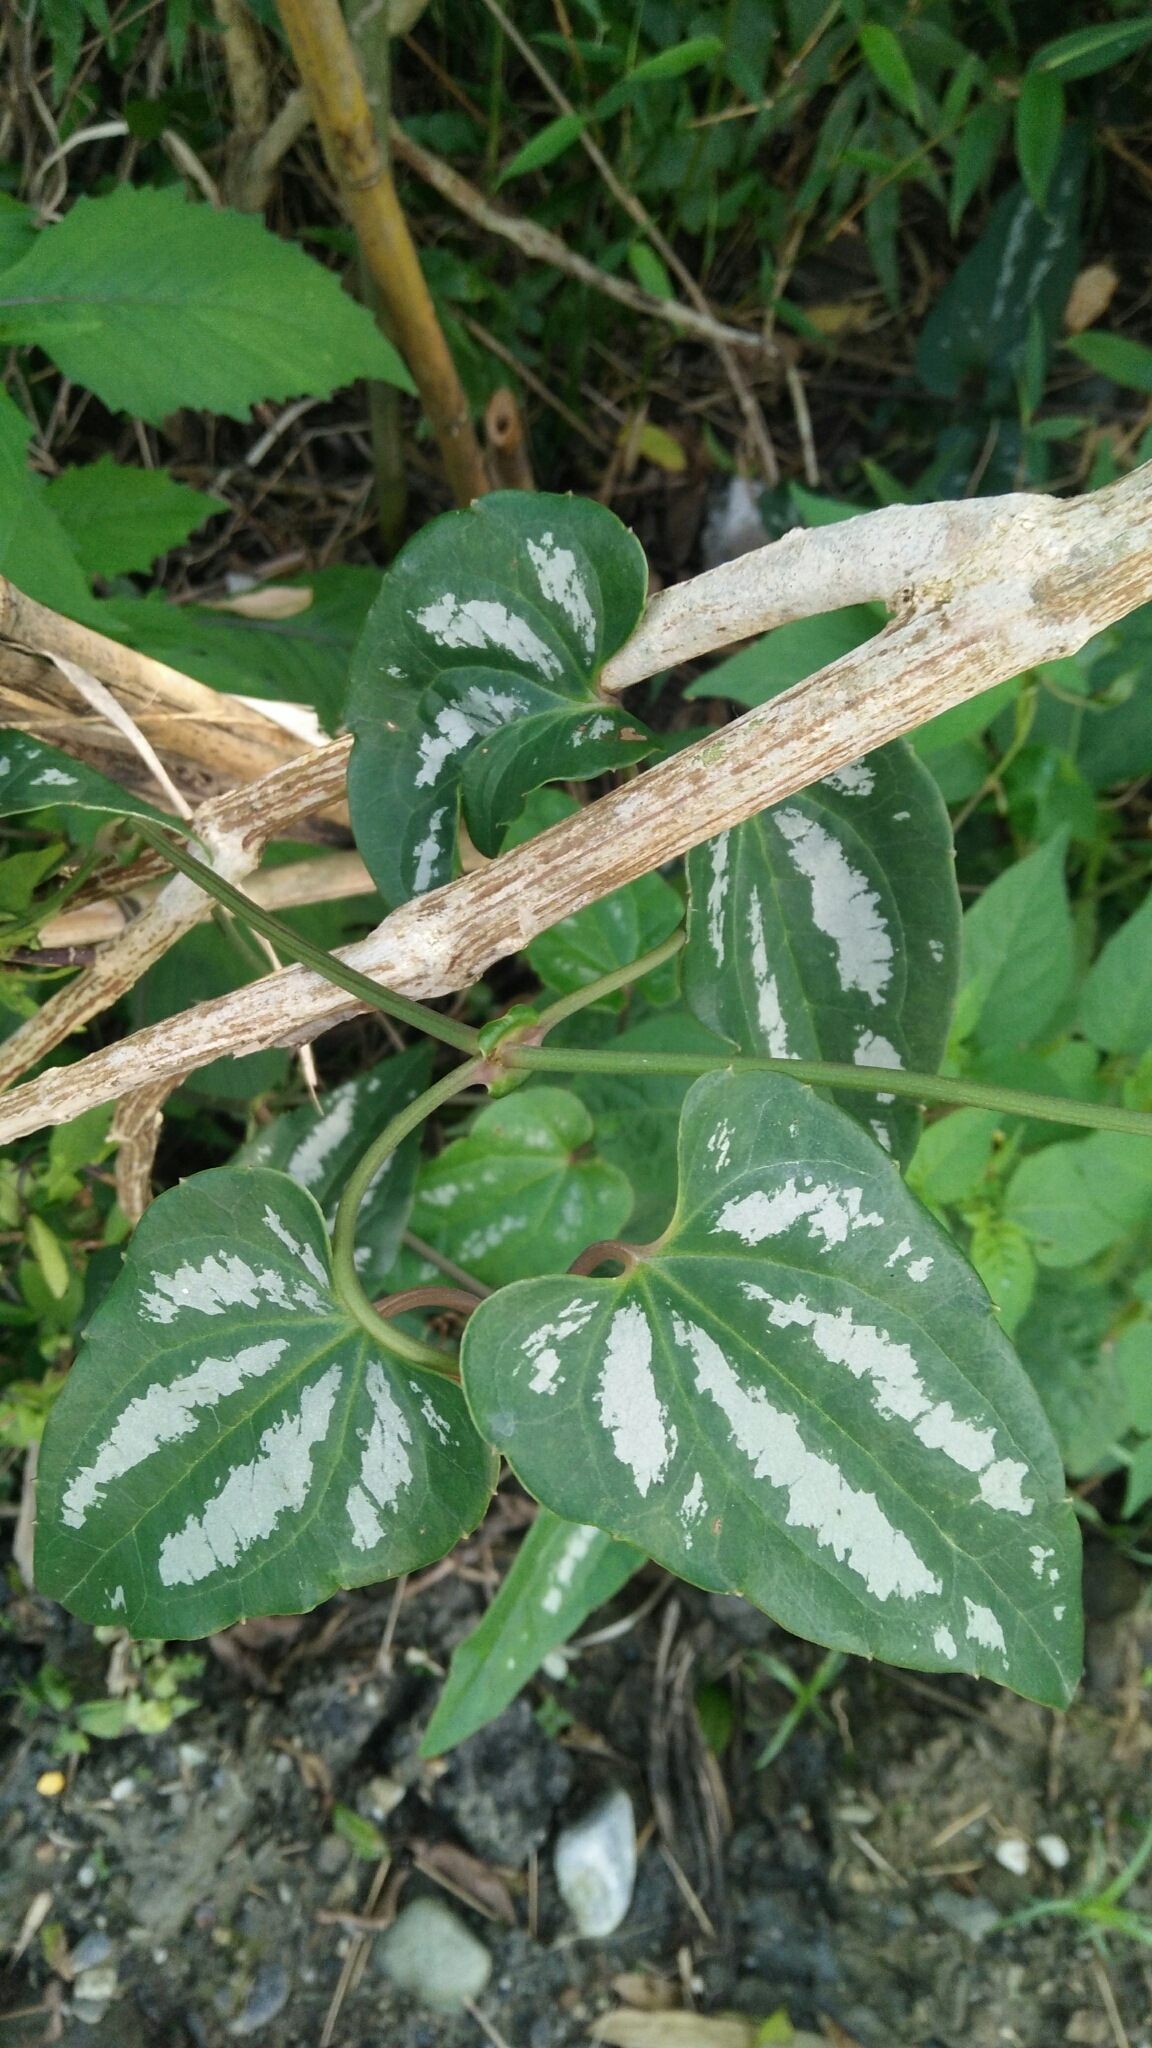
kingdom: Plantae
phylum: Tracheophyta
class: Magnoliopsida
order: Ranunculales
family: Ranunculaceae
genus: Clematis
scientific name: Clematis tashiroi
